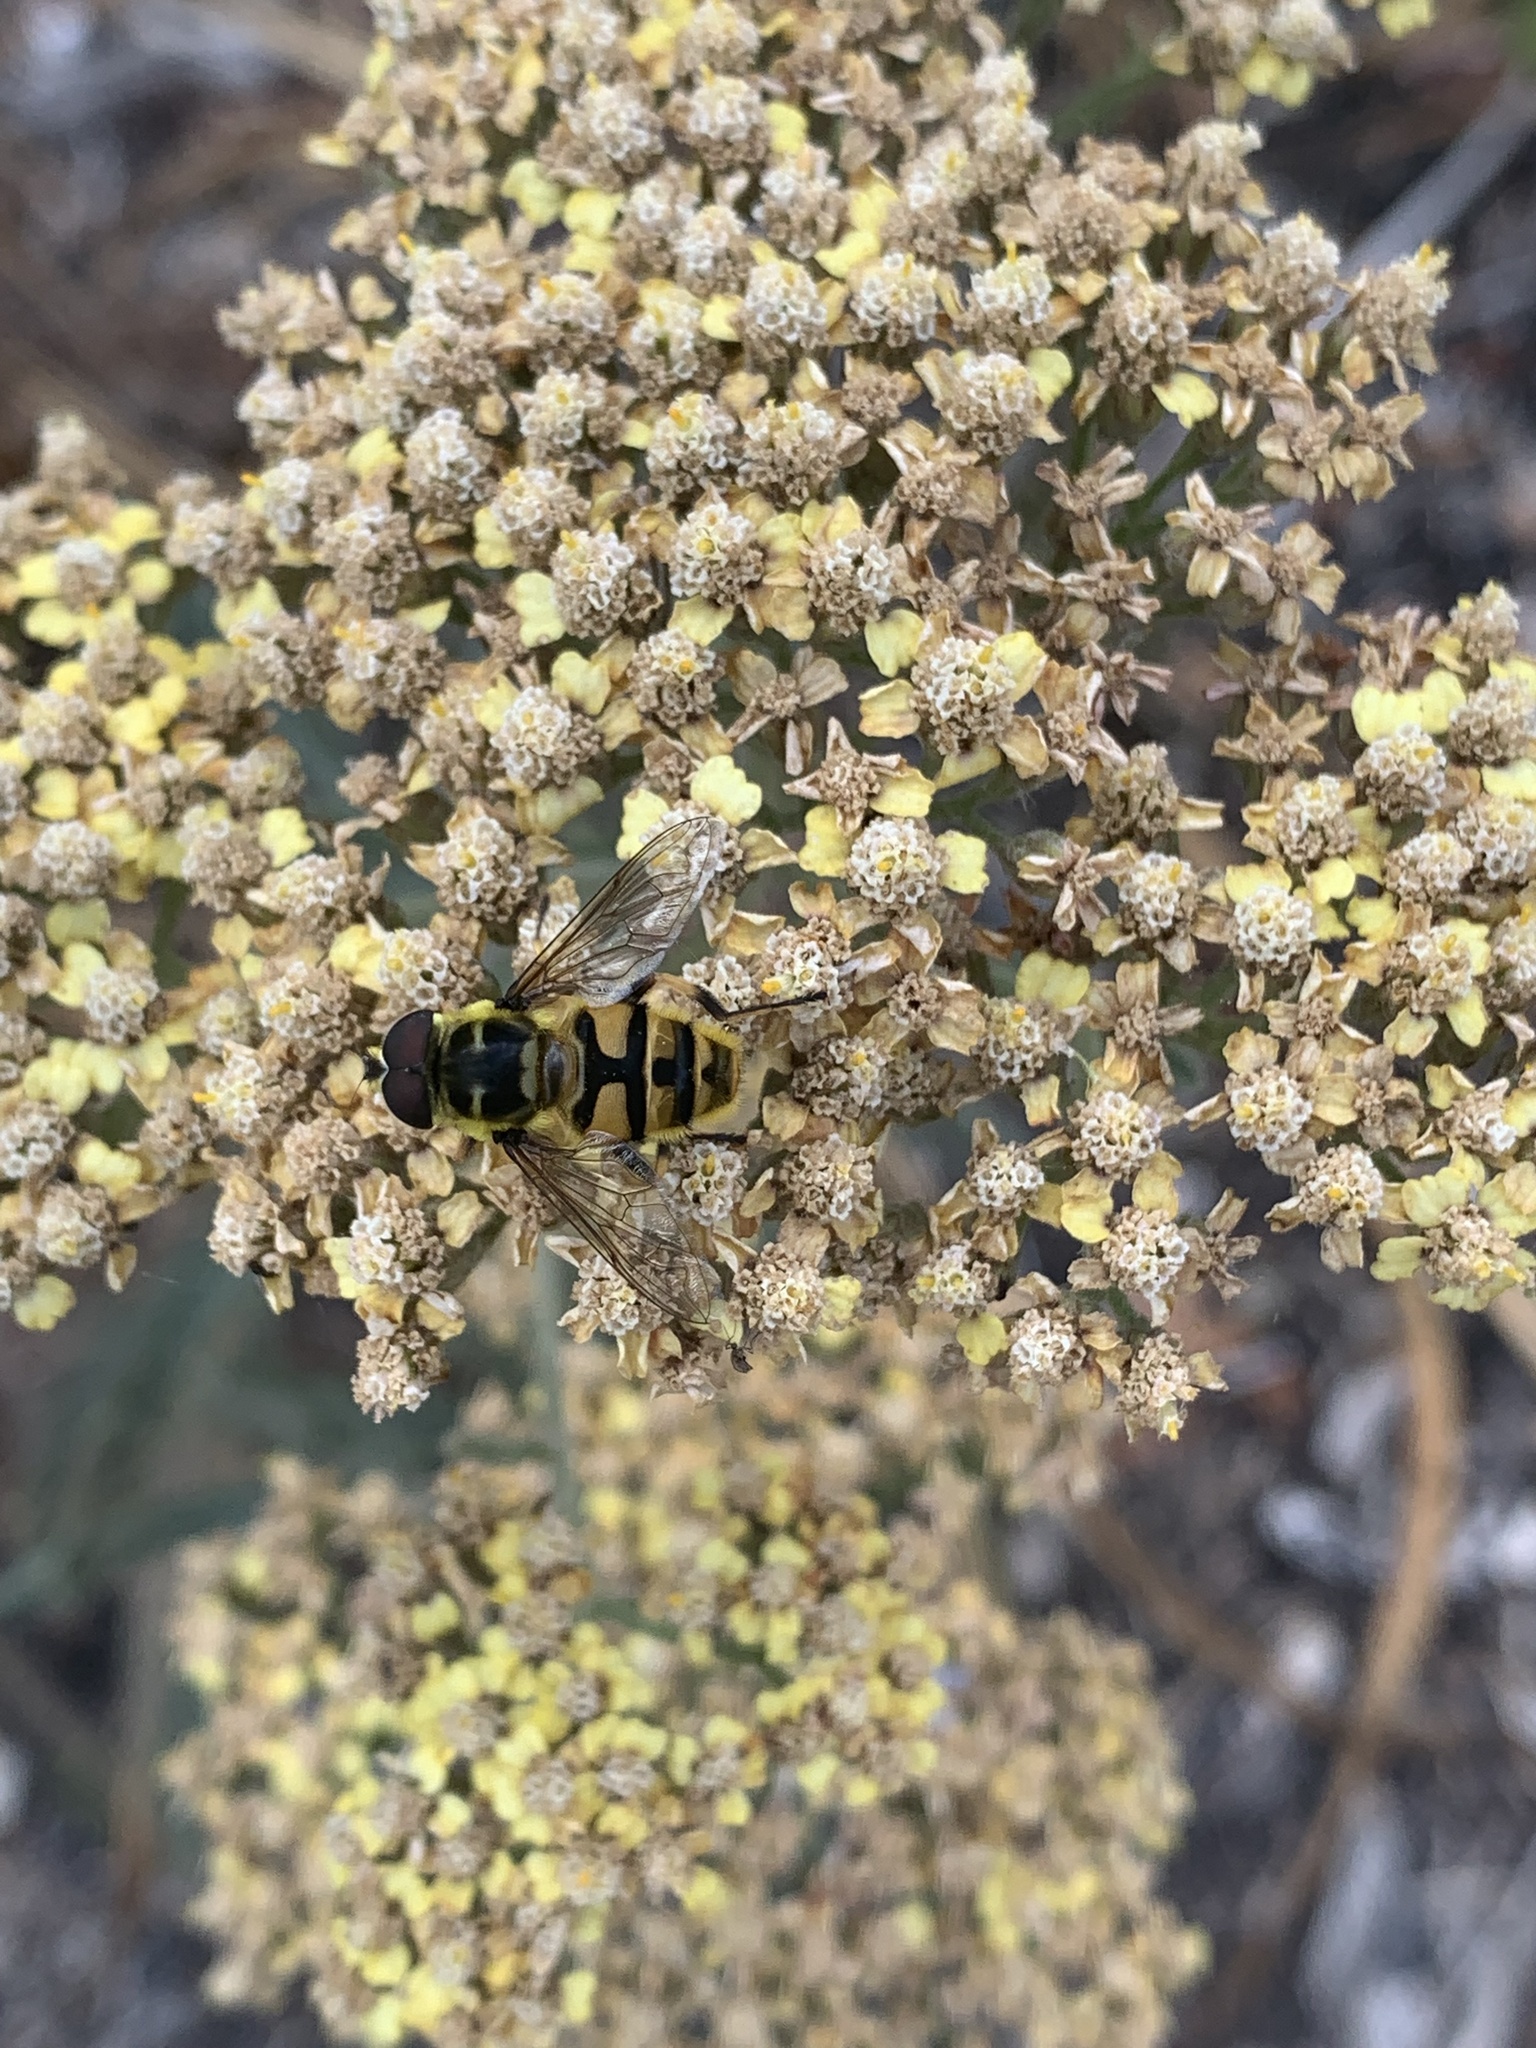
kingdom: Animalia
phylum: Arthropoda
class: Insecta
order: Diptera
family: Syrphidae
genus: Myathropa
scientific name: Myathropa florea
